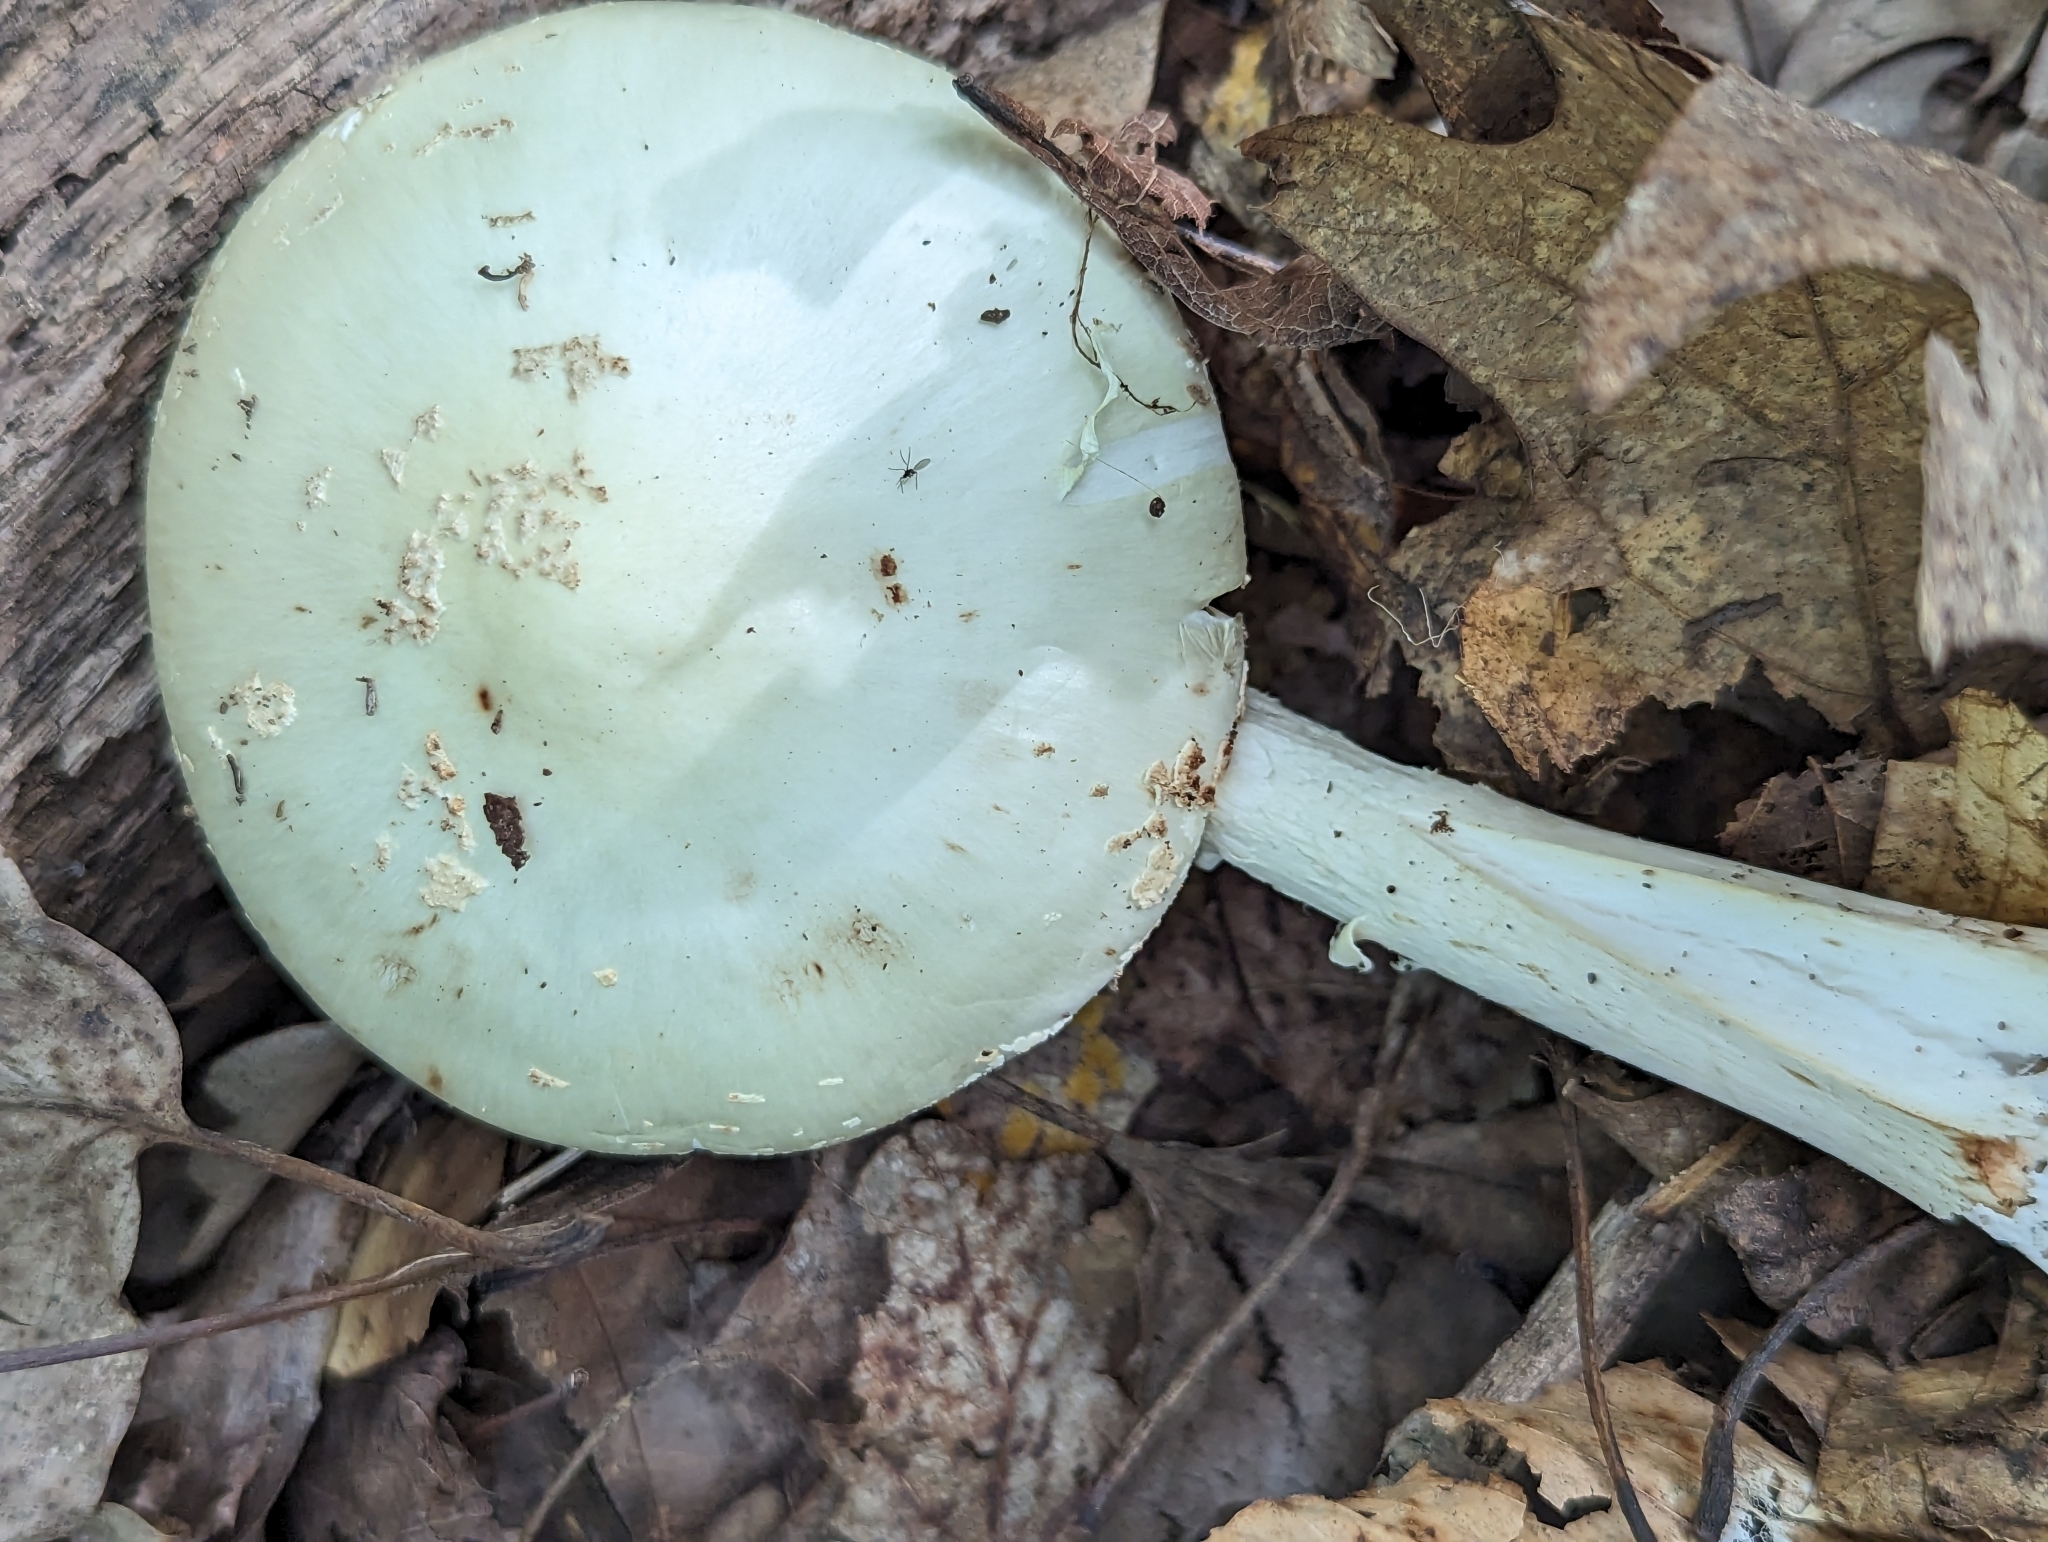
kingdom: Fungi
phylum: Basidiomycota
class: Agaricomycetes
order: Agaricales
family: Amanitaceae
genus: Amanita
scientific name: Amanita bisporigera
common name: Eastern north american destroying angel
